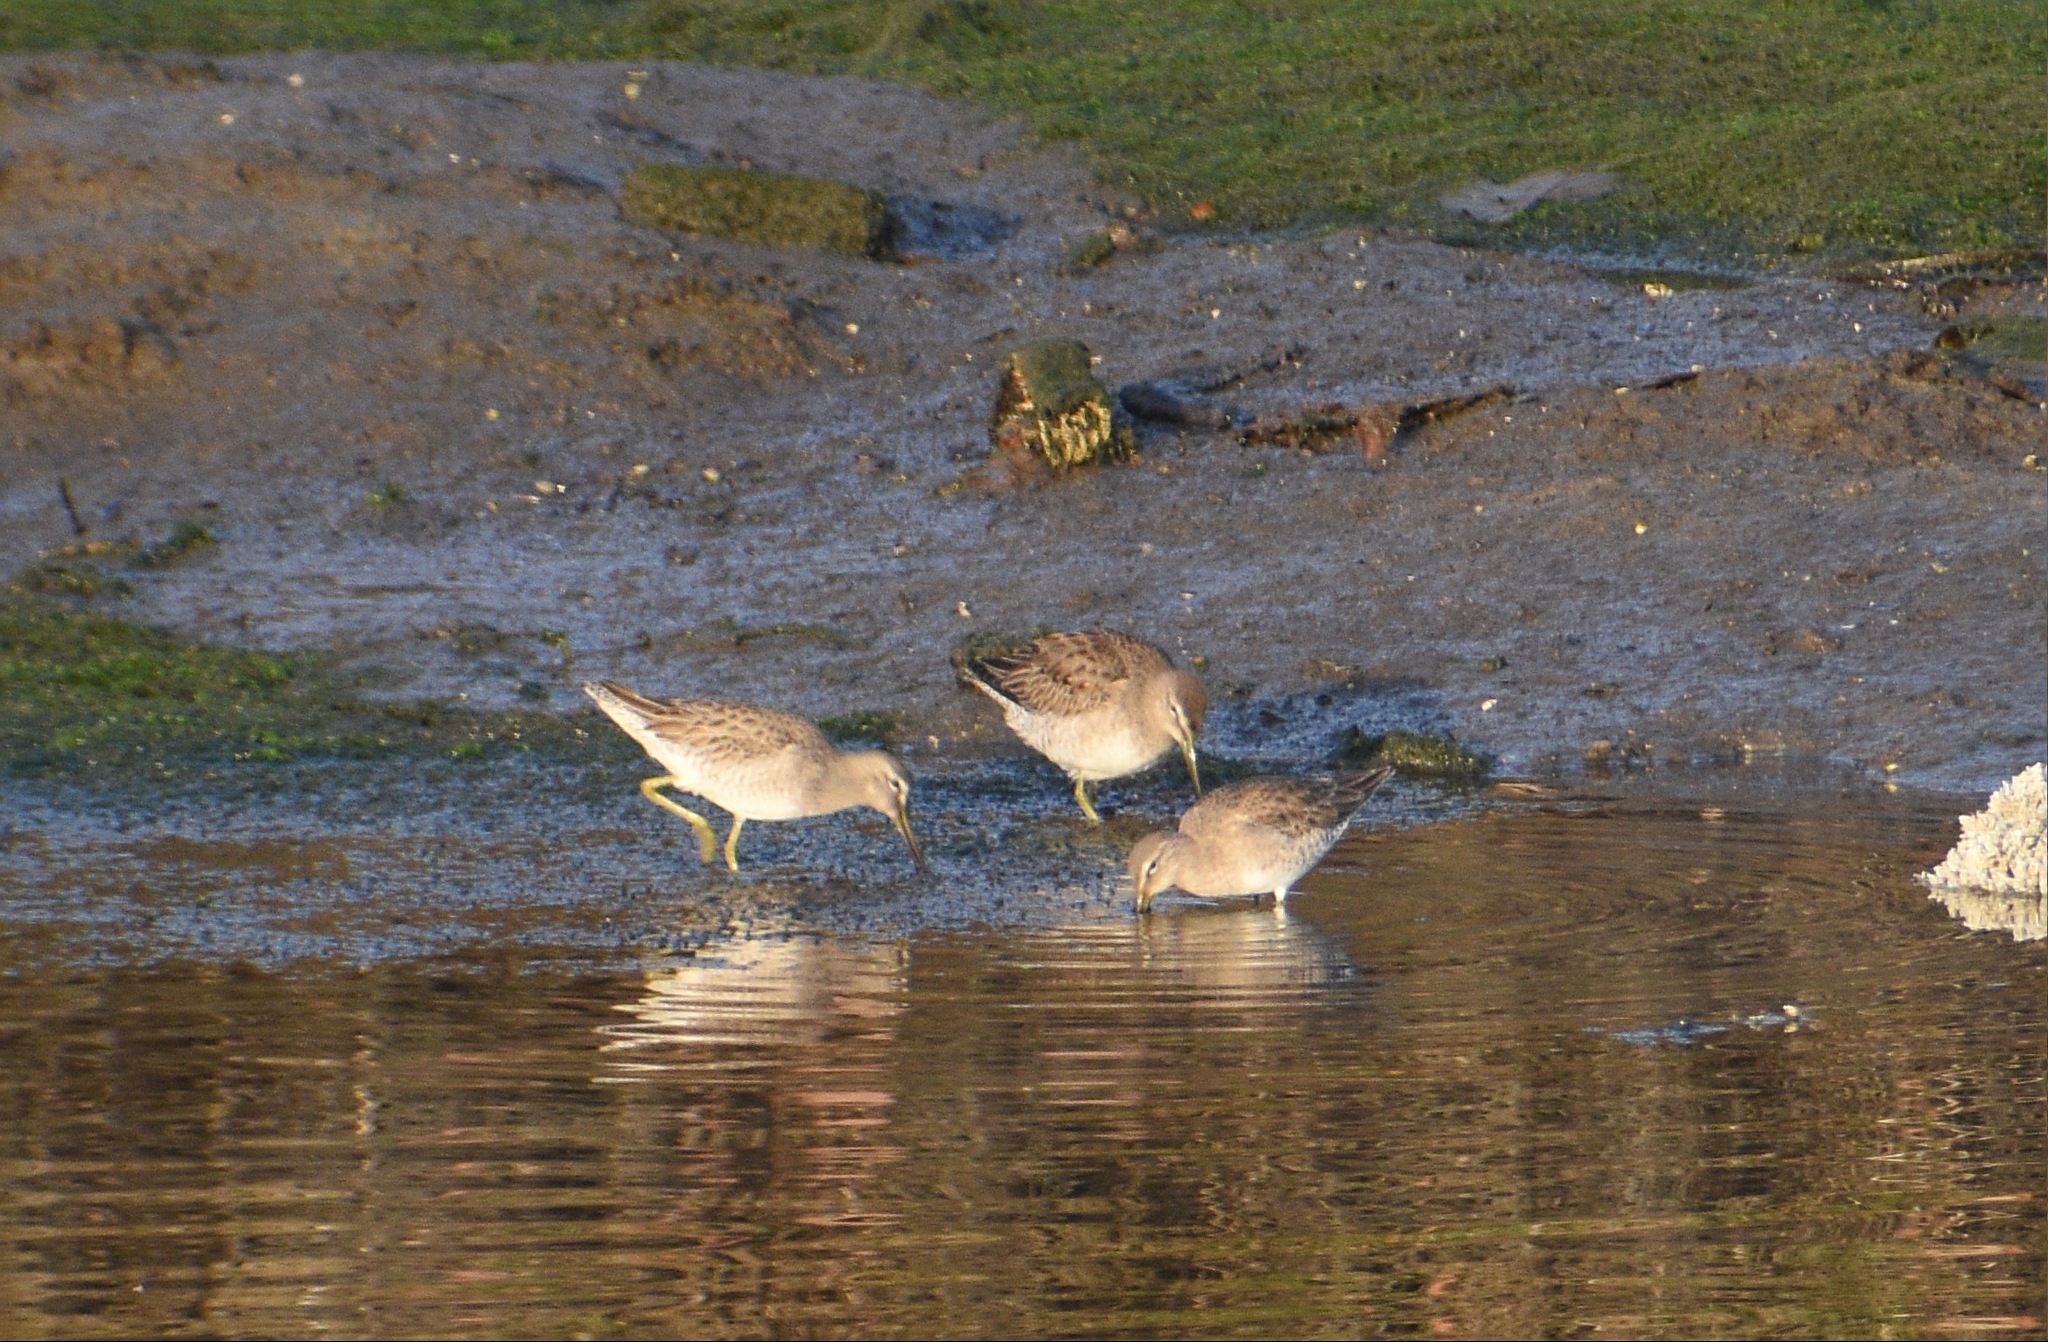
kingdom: Animalia
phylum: Chordata
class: Aves
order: Charadriiformes
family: Scolopacidae
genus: Limnodromus
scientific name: Limnodromus
